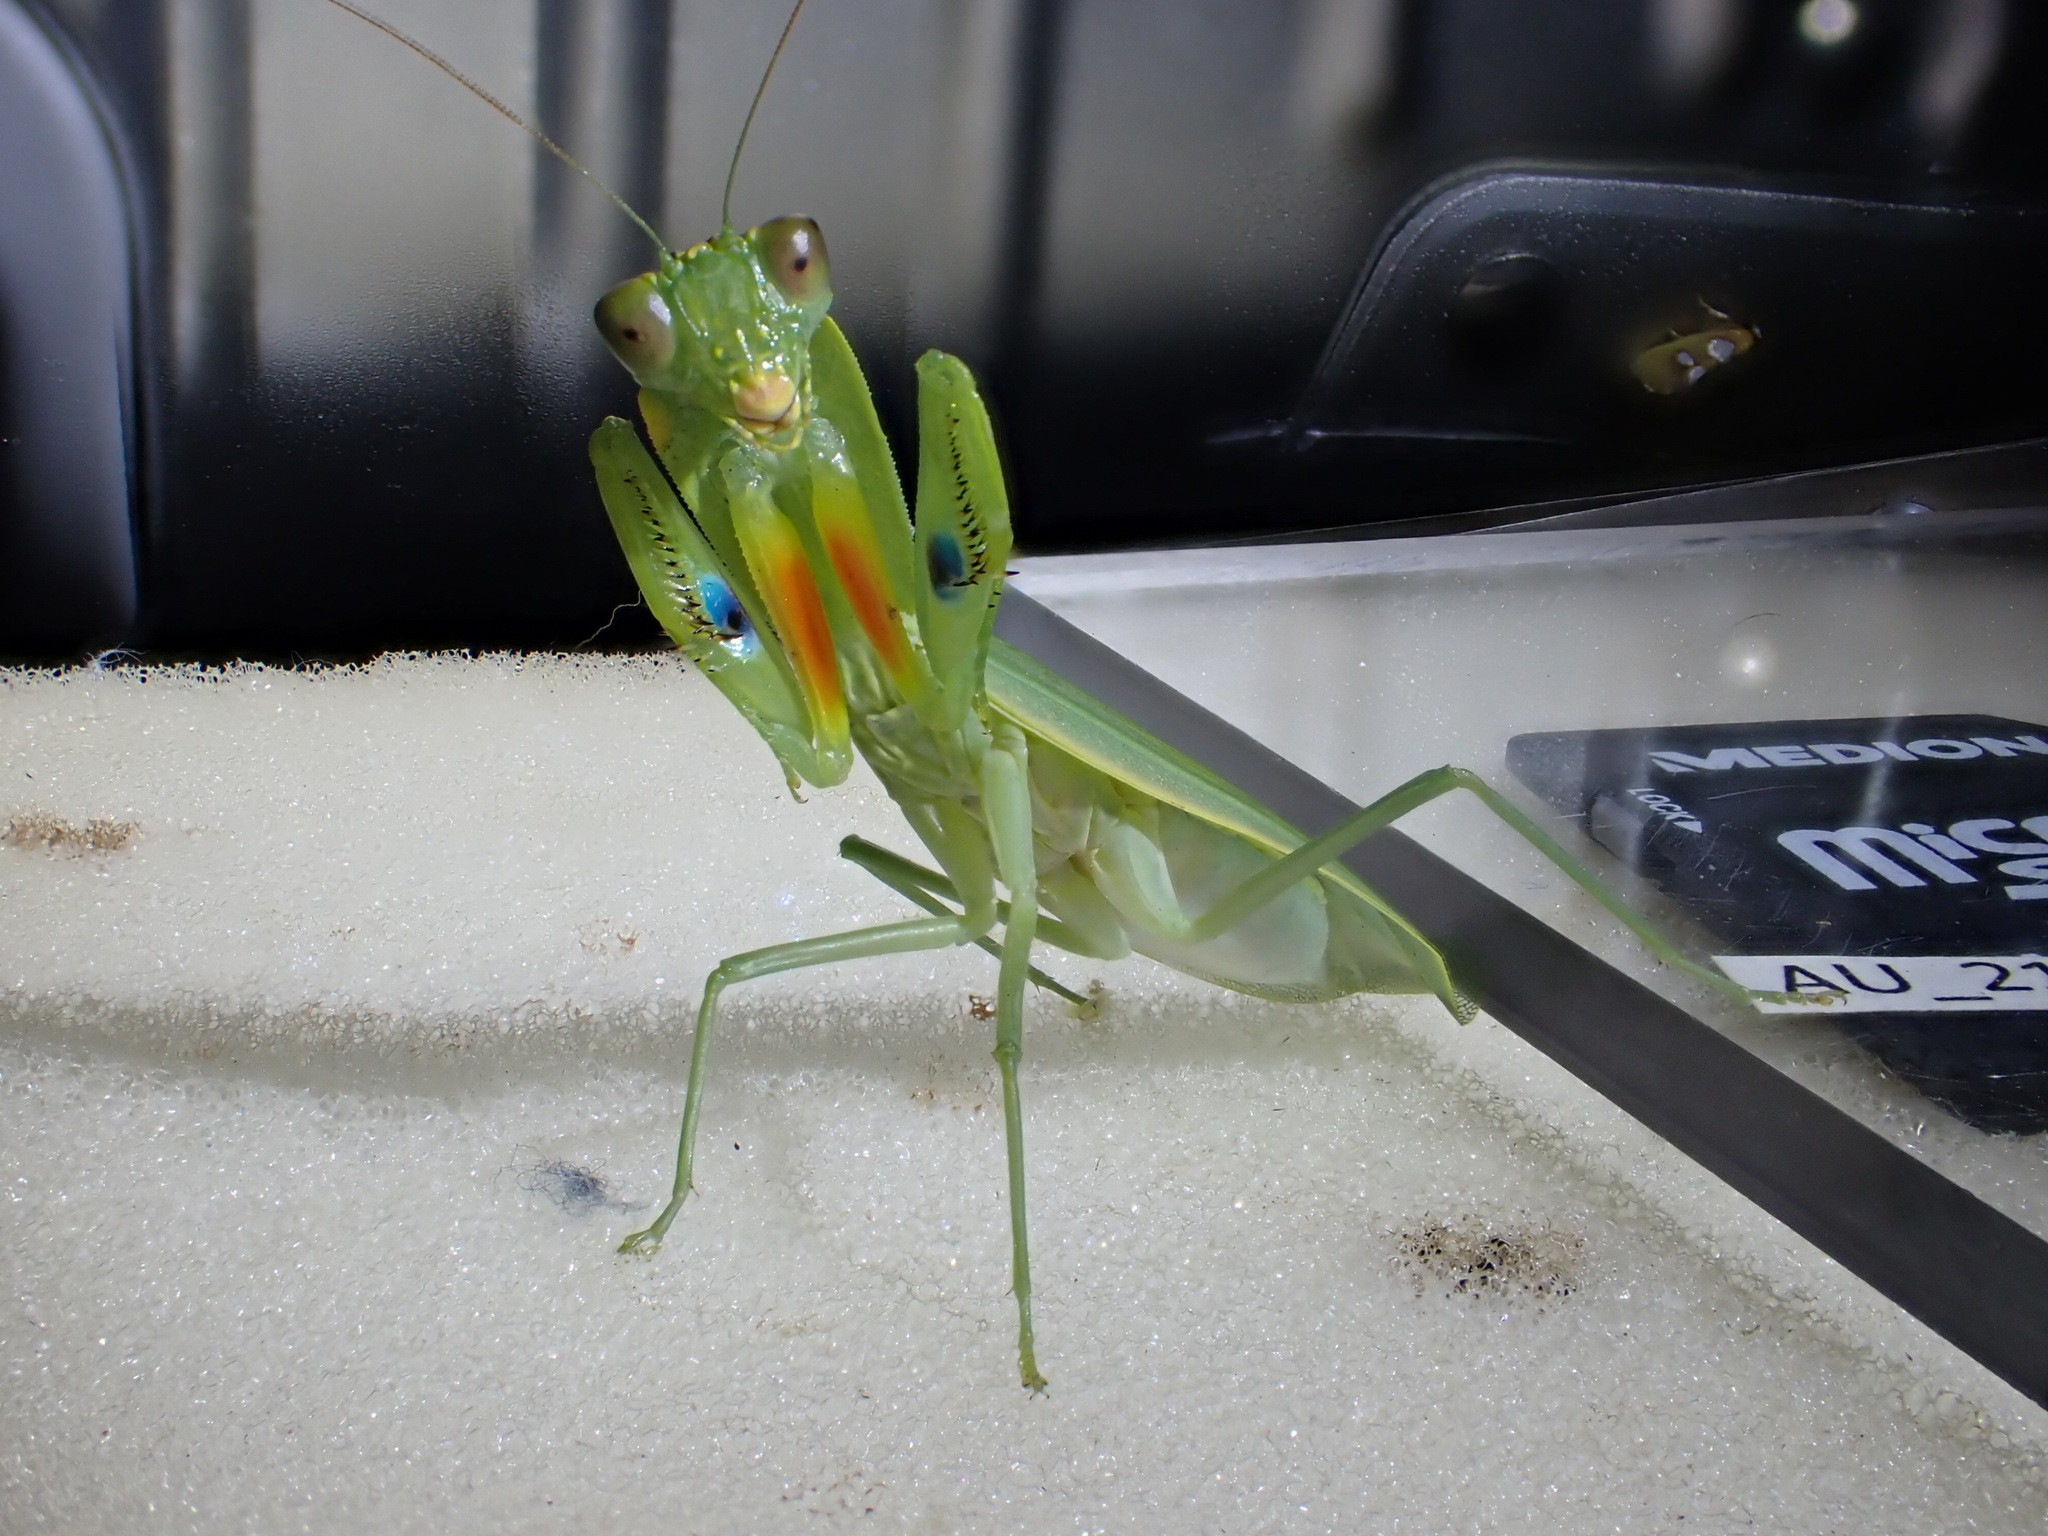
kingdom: Animalia
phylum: Arthropoda
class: Insecta
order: Mantodea
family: Mantidae
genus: Orthodera
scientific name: Orthodera ministralis
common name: Mantis
